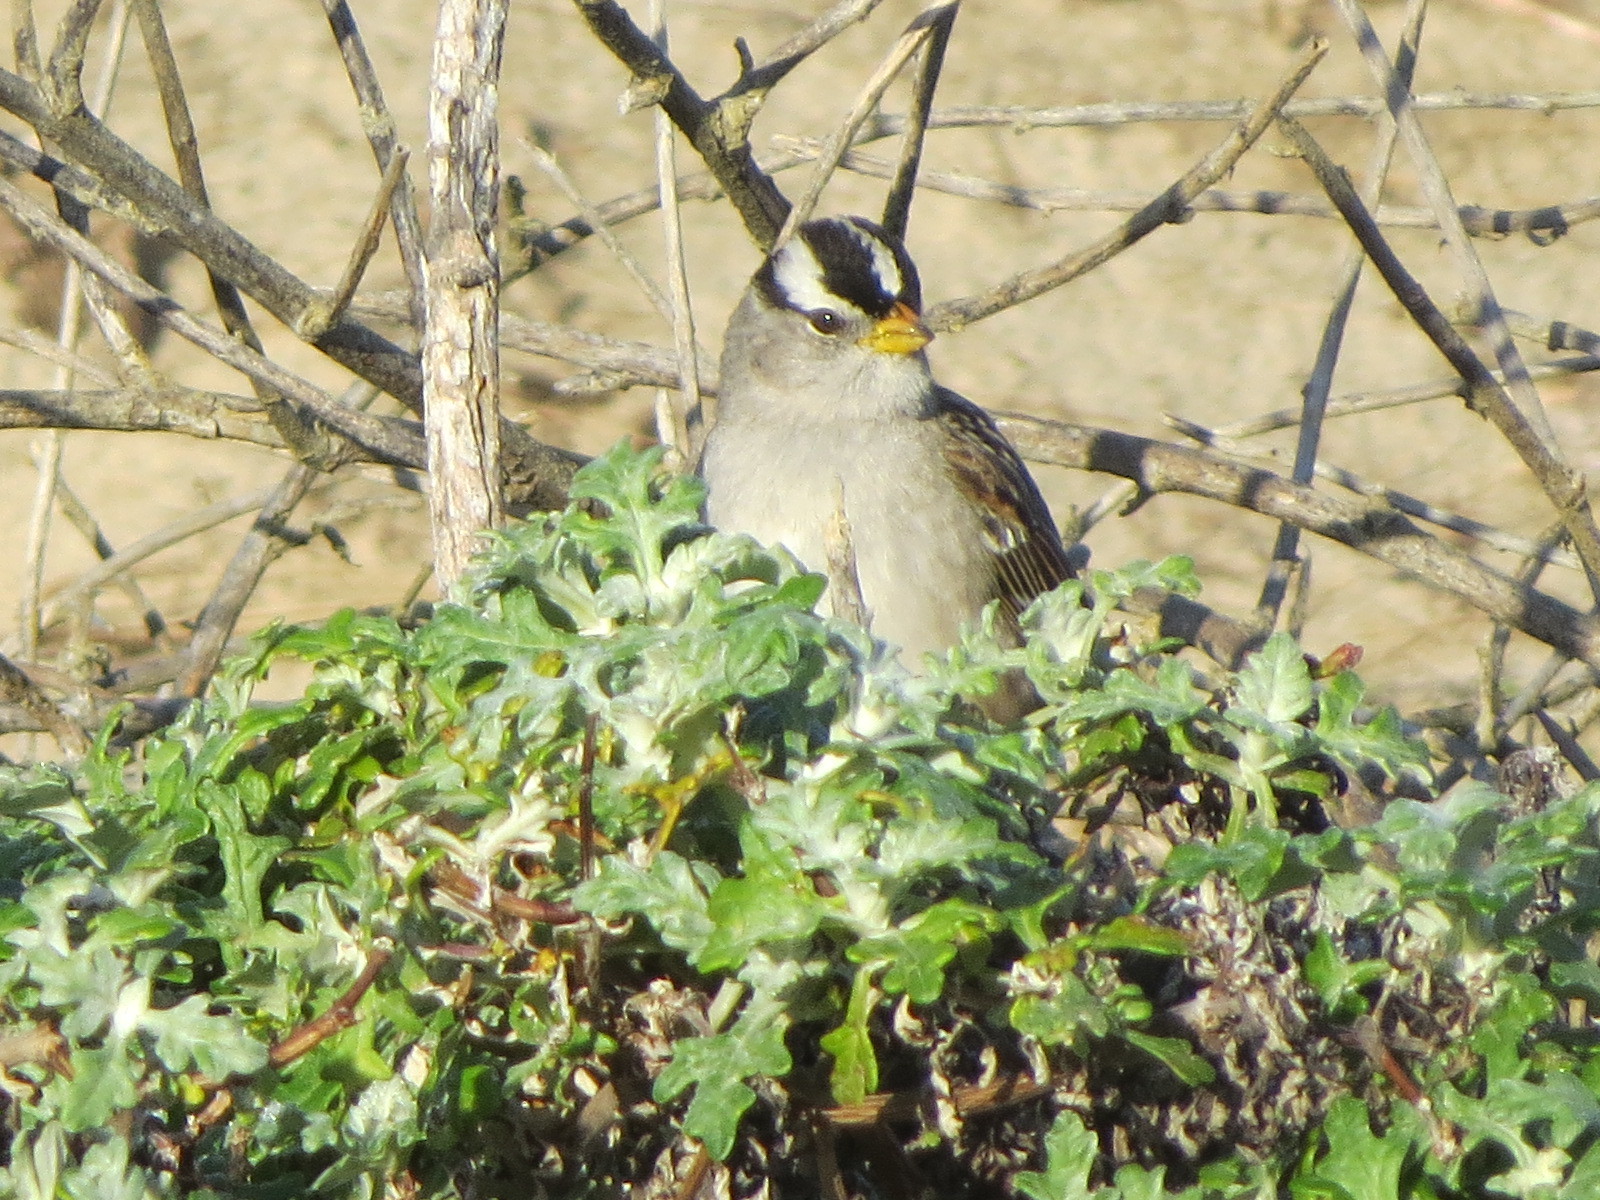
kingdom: Animalia
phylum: Chordata
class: Aves
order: Passeriformes
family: Passerellidae
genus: Zonotrichia
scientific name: Zonotrichia leucophrys
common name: White-crowned sparrow
